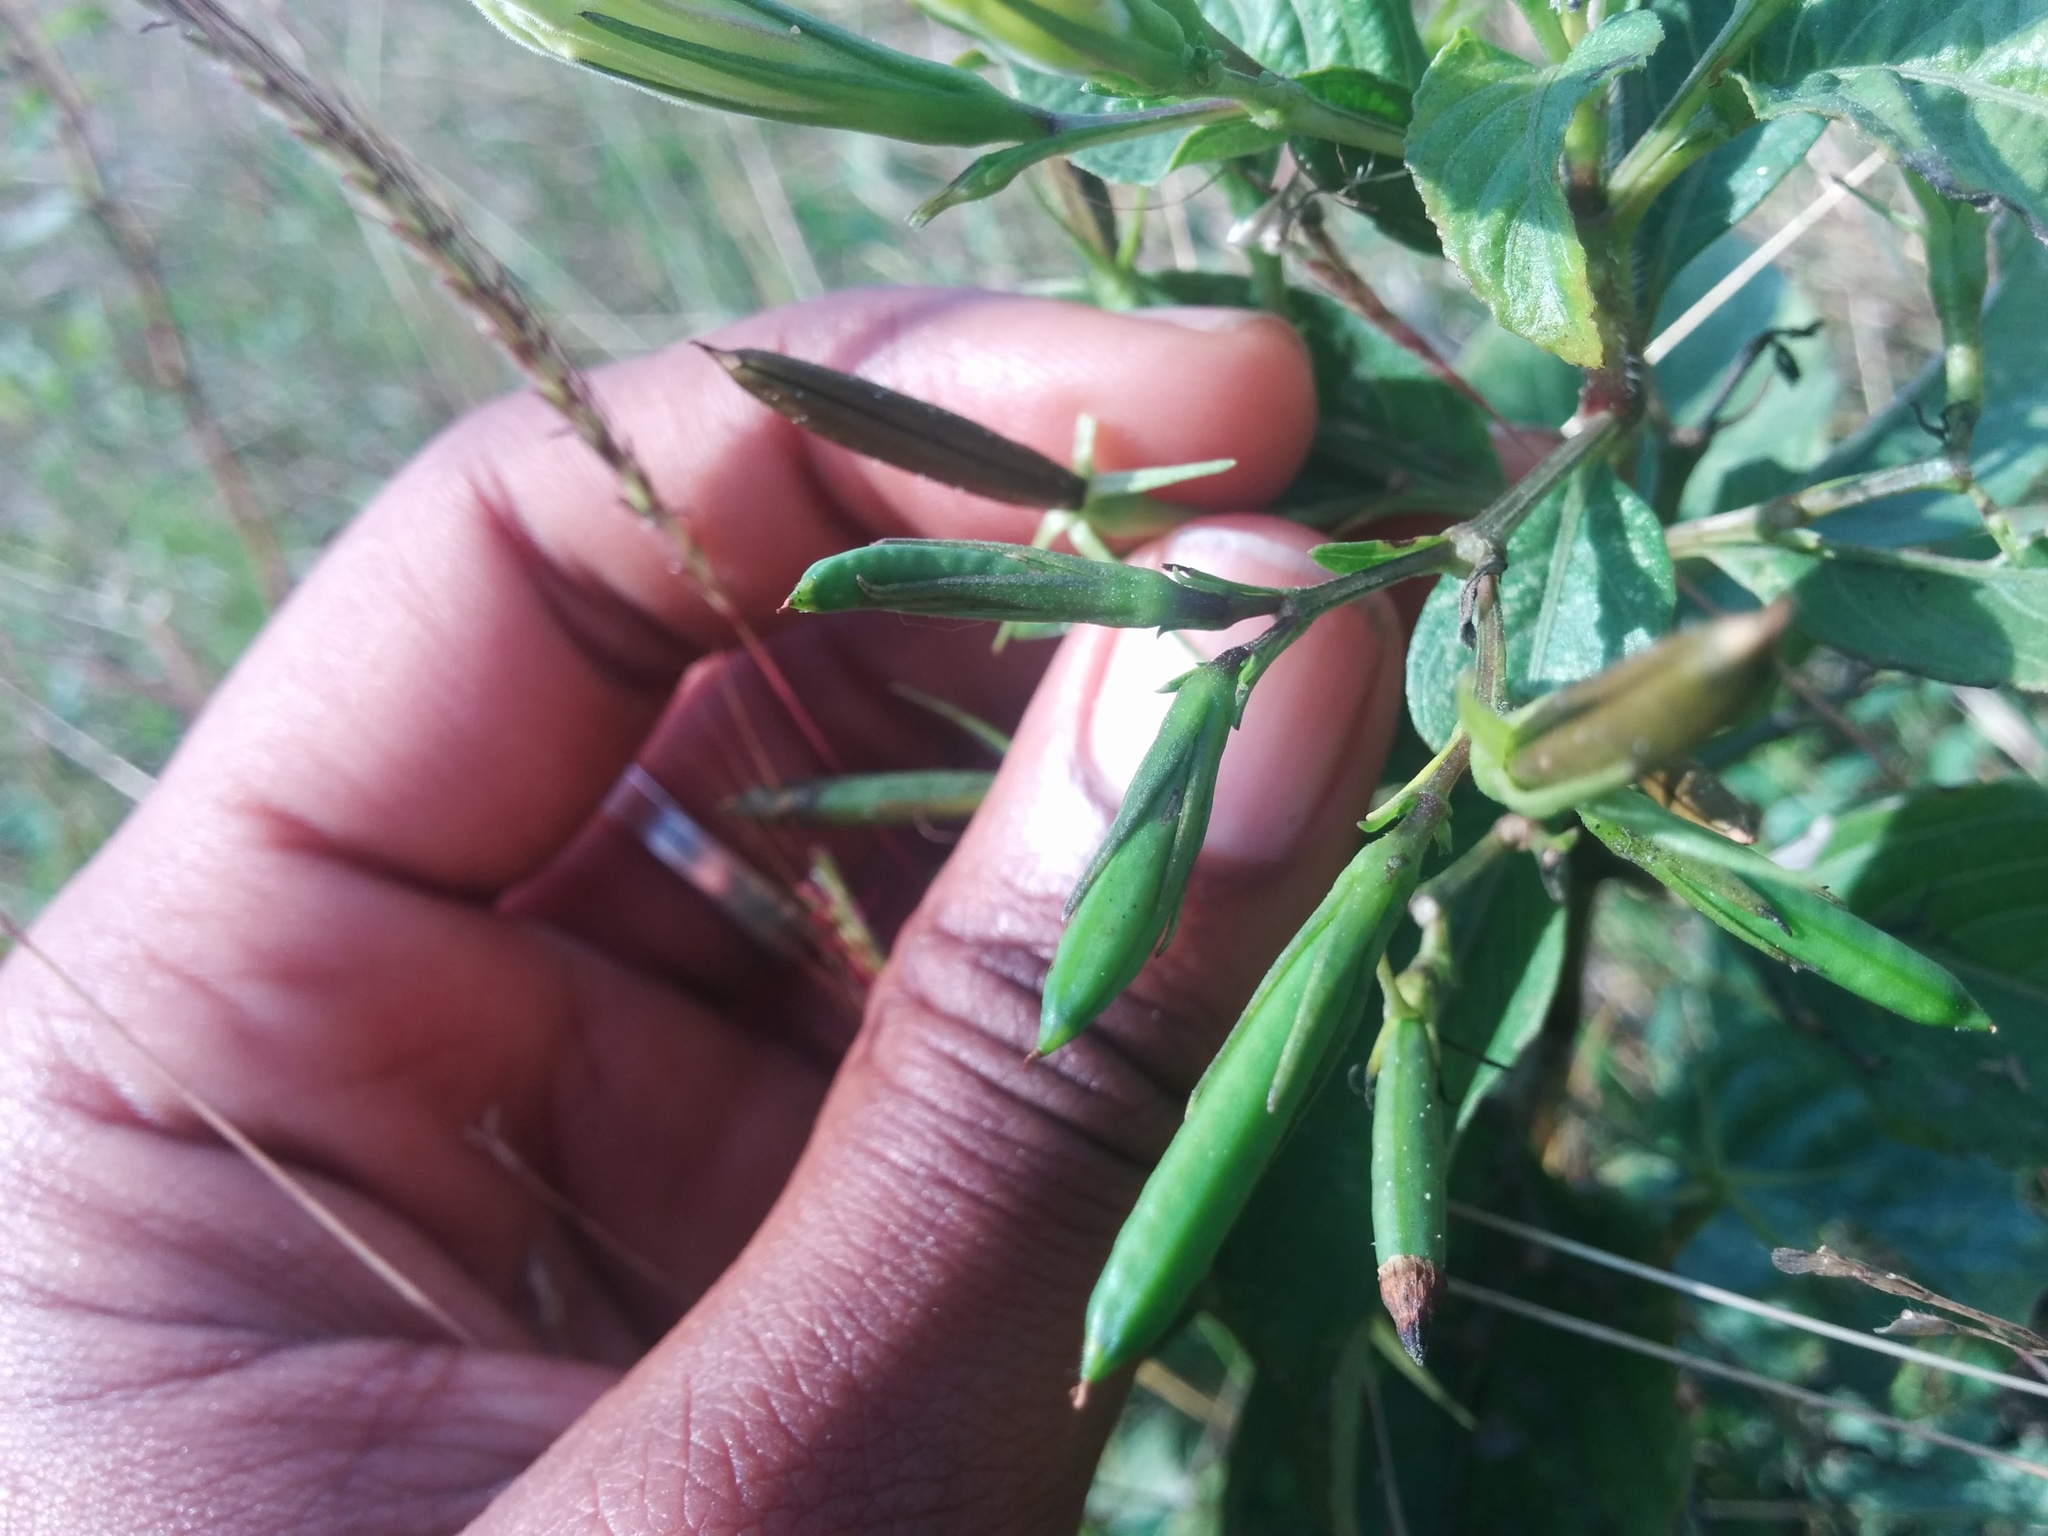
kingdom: Plantae
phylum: Tracheophyta
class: Magnoliopsida
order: Lamiales
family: Acanthaceae
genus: Ruellia
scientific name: Ruellia tuberosa
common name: Devil's bit
